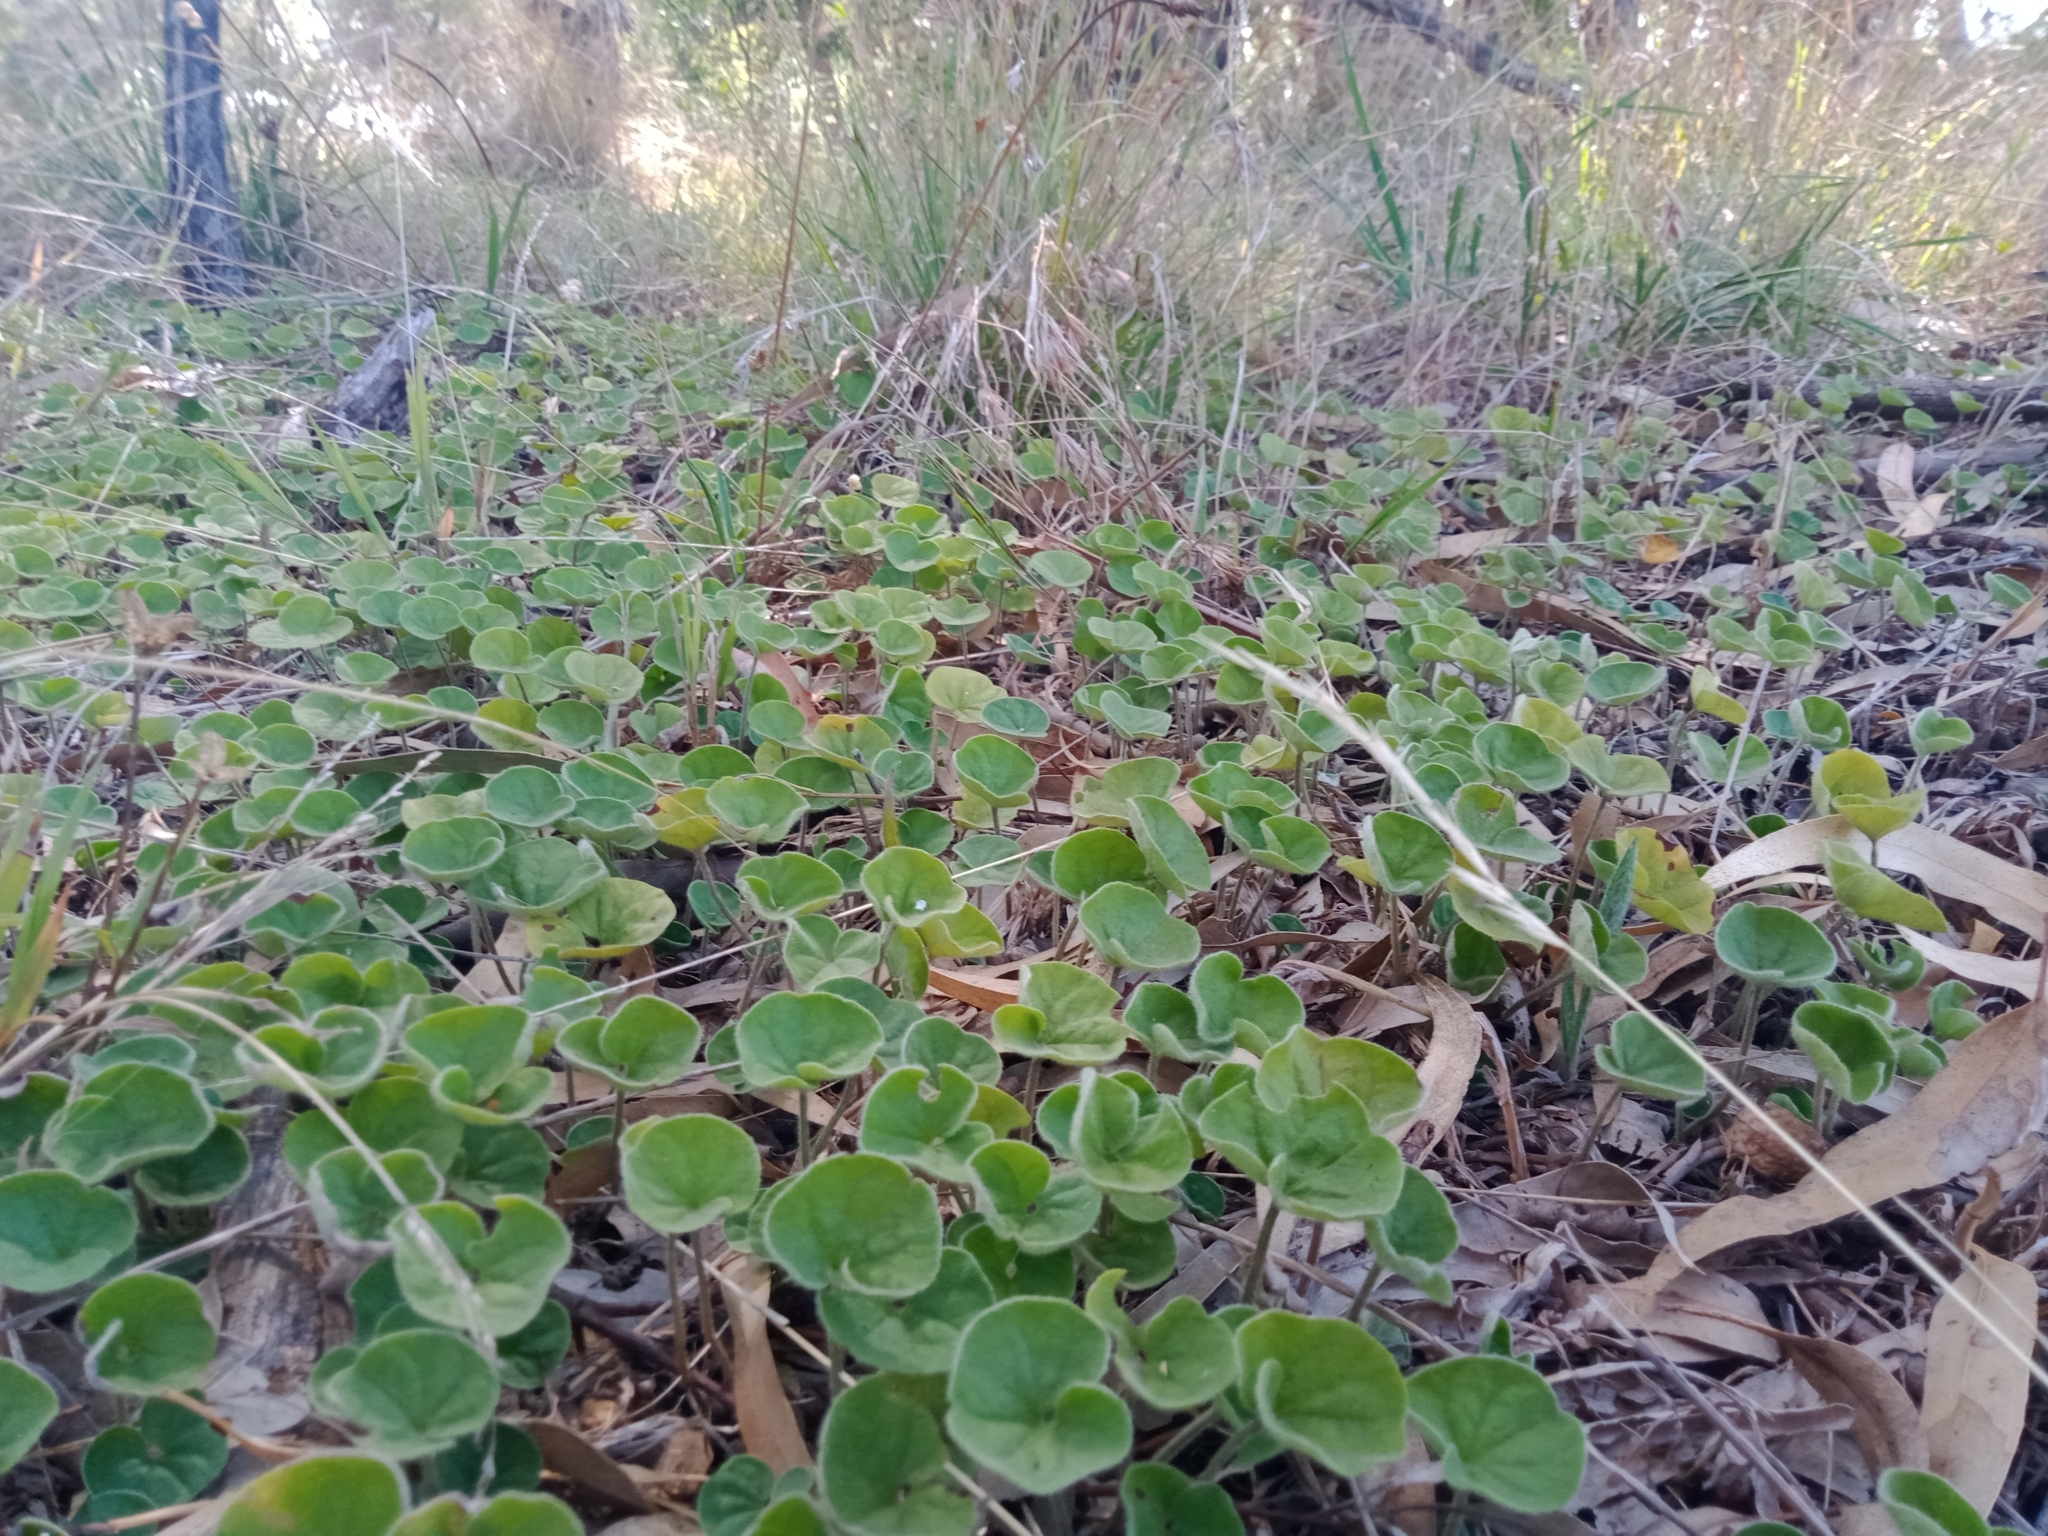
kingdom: Plantae
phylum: Tracheophyta
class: Magnoliopsida
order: Solanales
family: Convolvulaceae
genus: Dichondra
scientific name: Dichondra repens
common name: Kidneyweed
